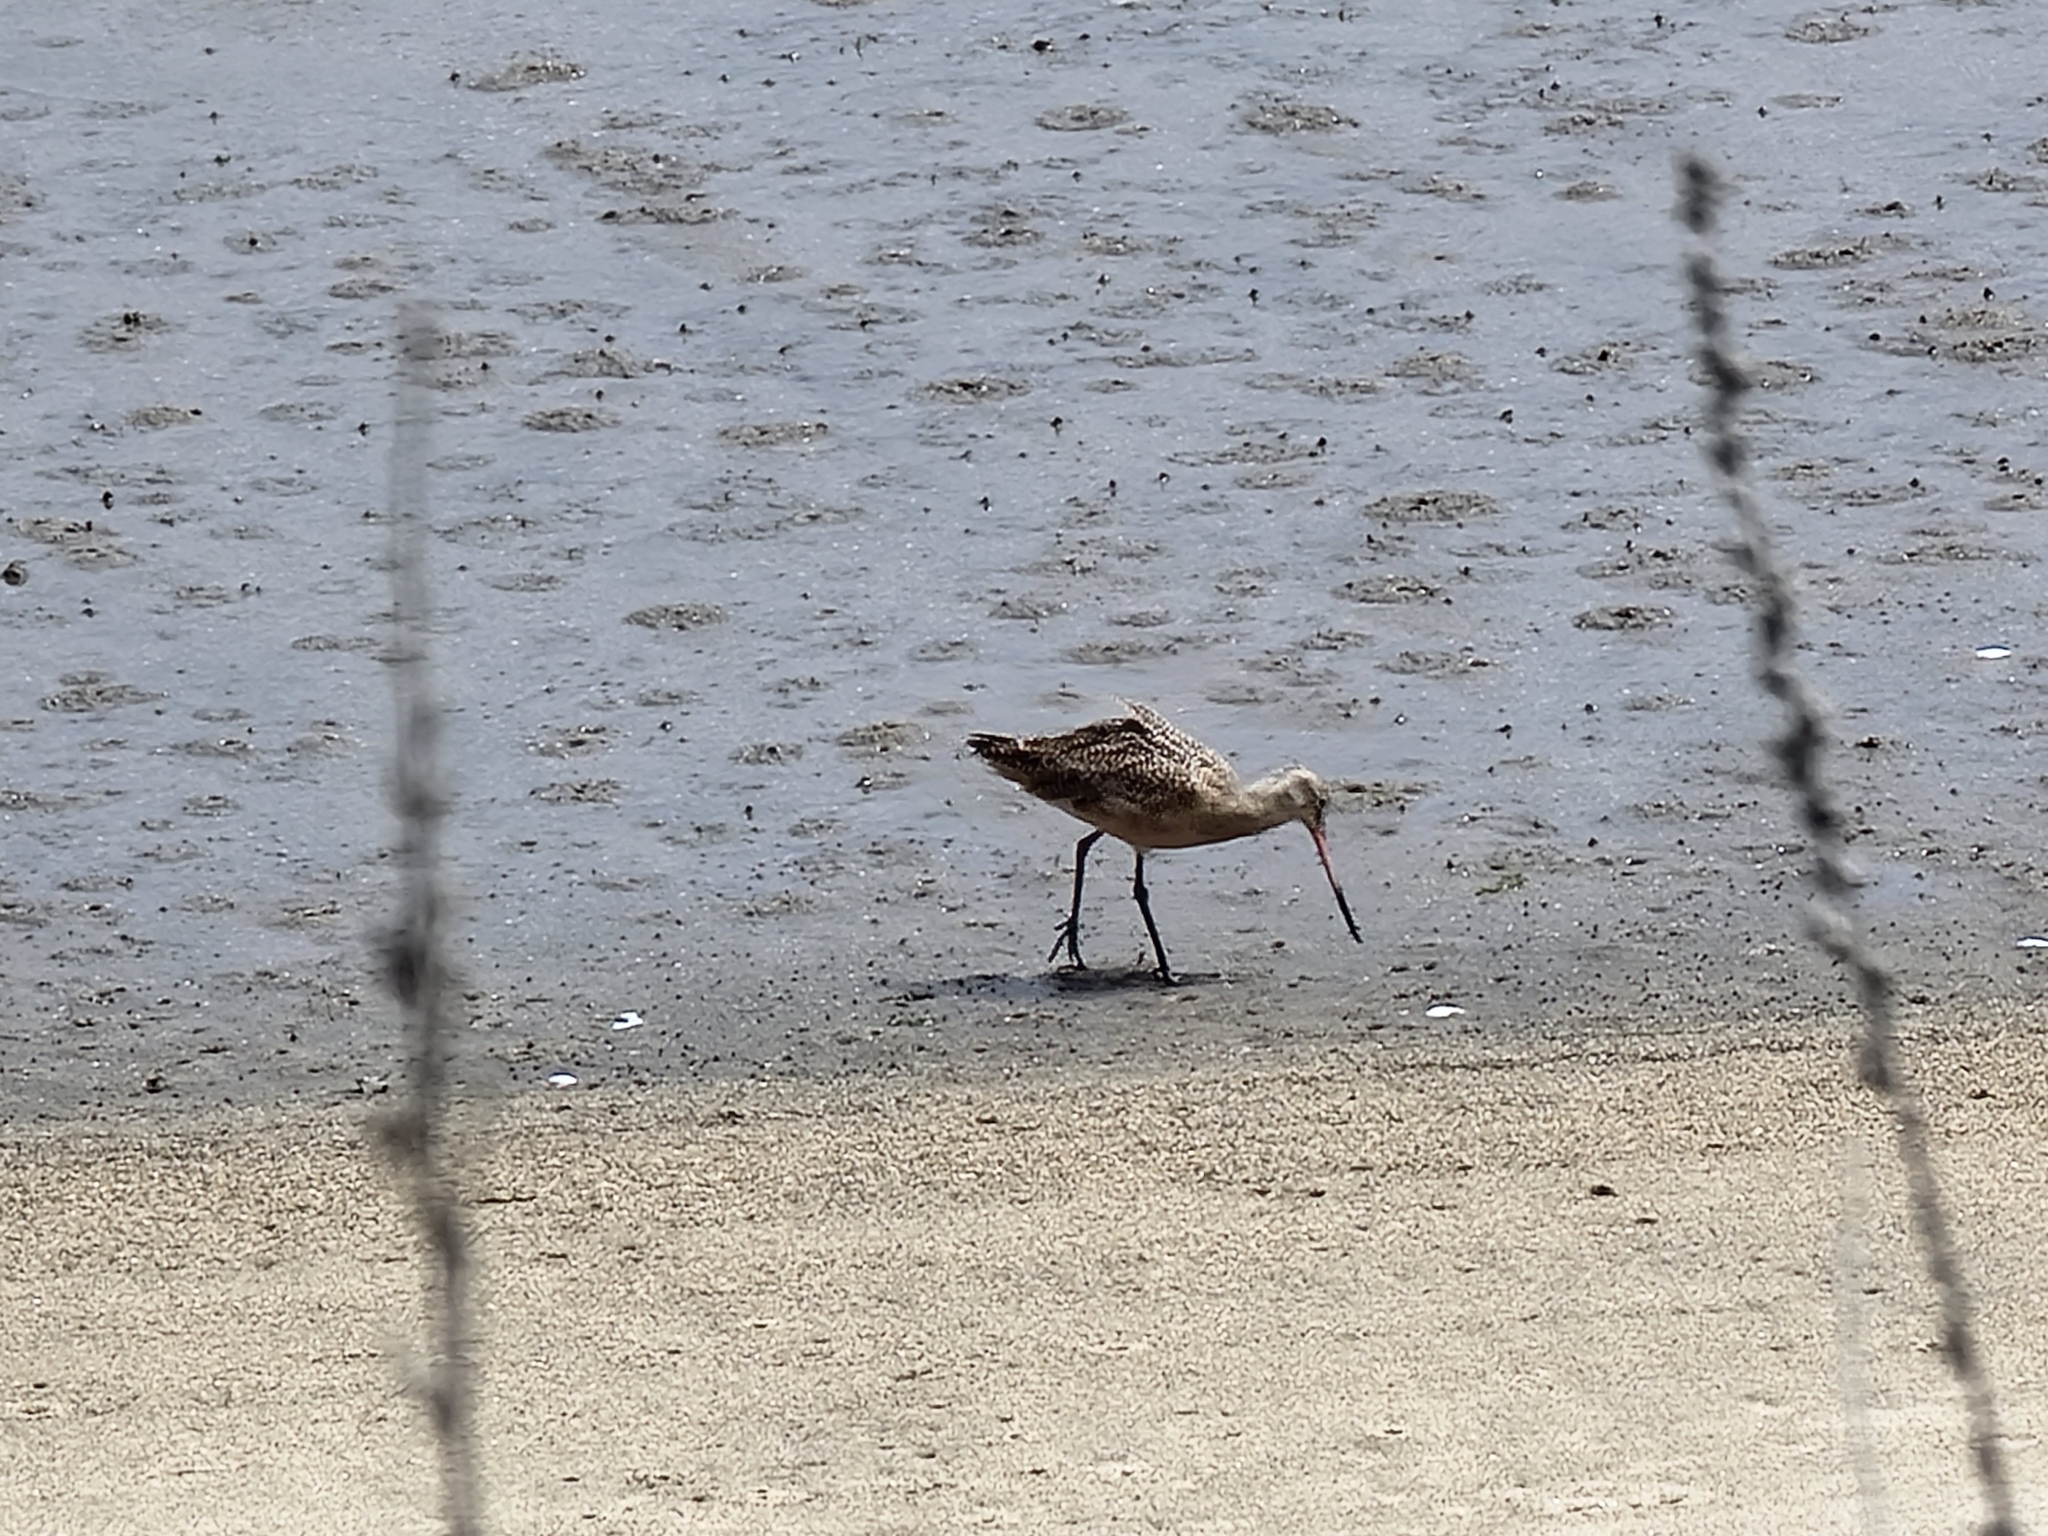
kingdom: Animalia
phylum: Chordata
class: Aves
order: Charadriiformes
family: Scolopacidae
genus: Limosa
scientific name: Limosa fedoa
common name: Marbled godwit
